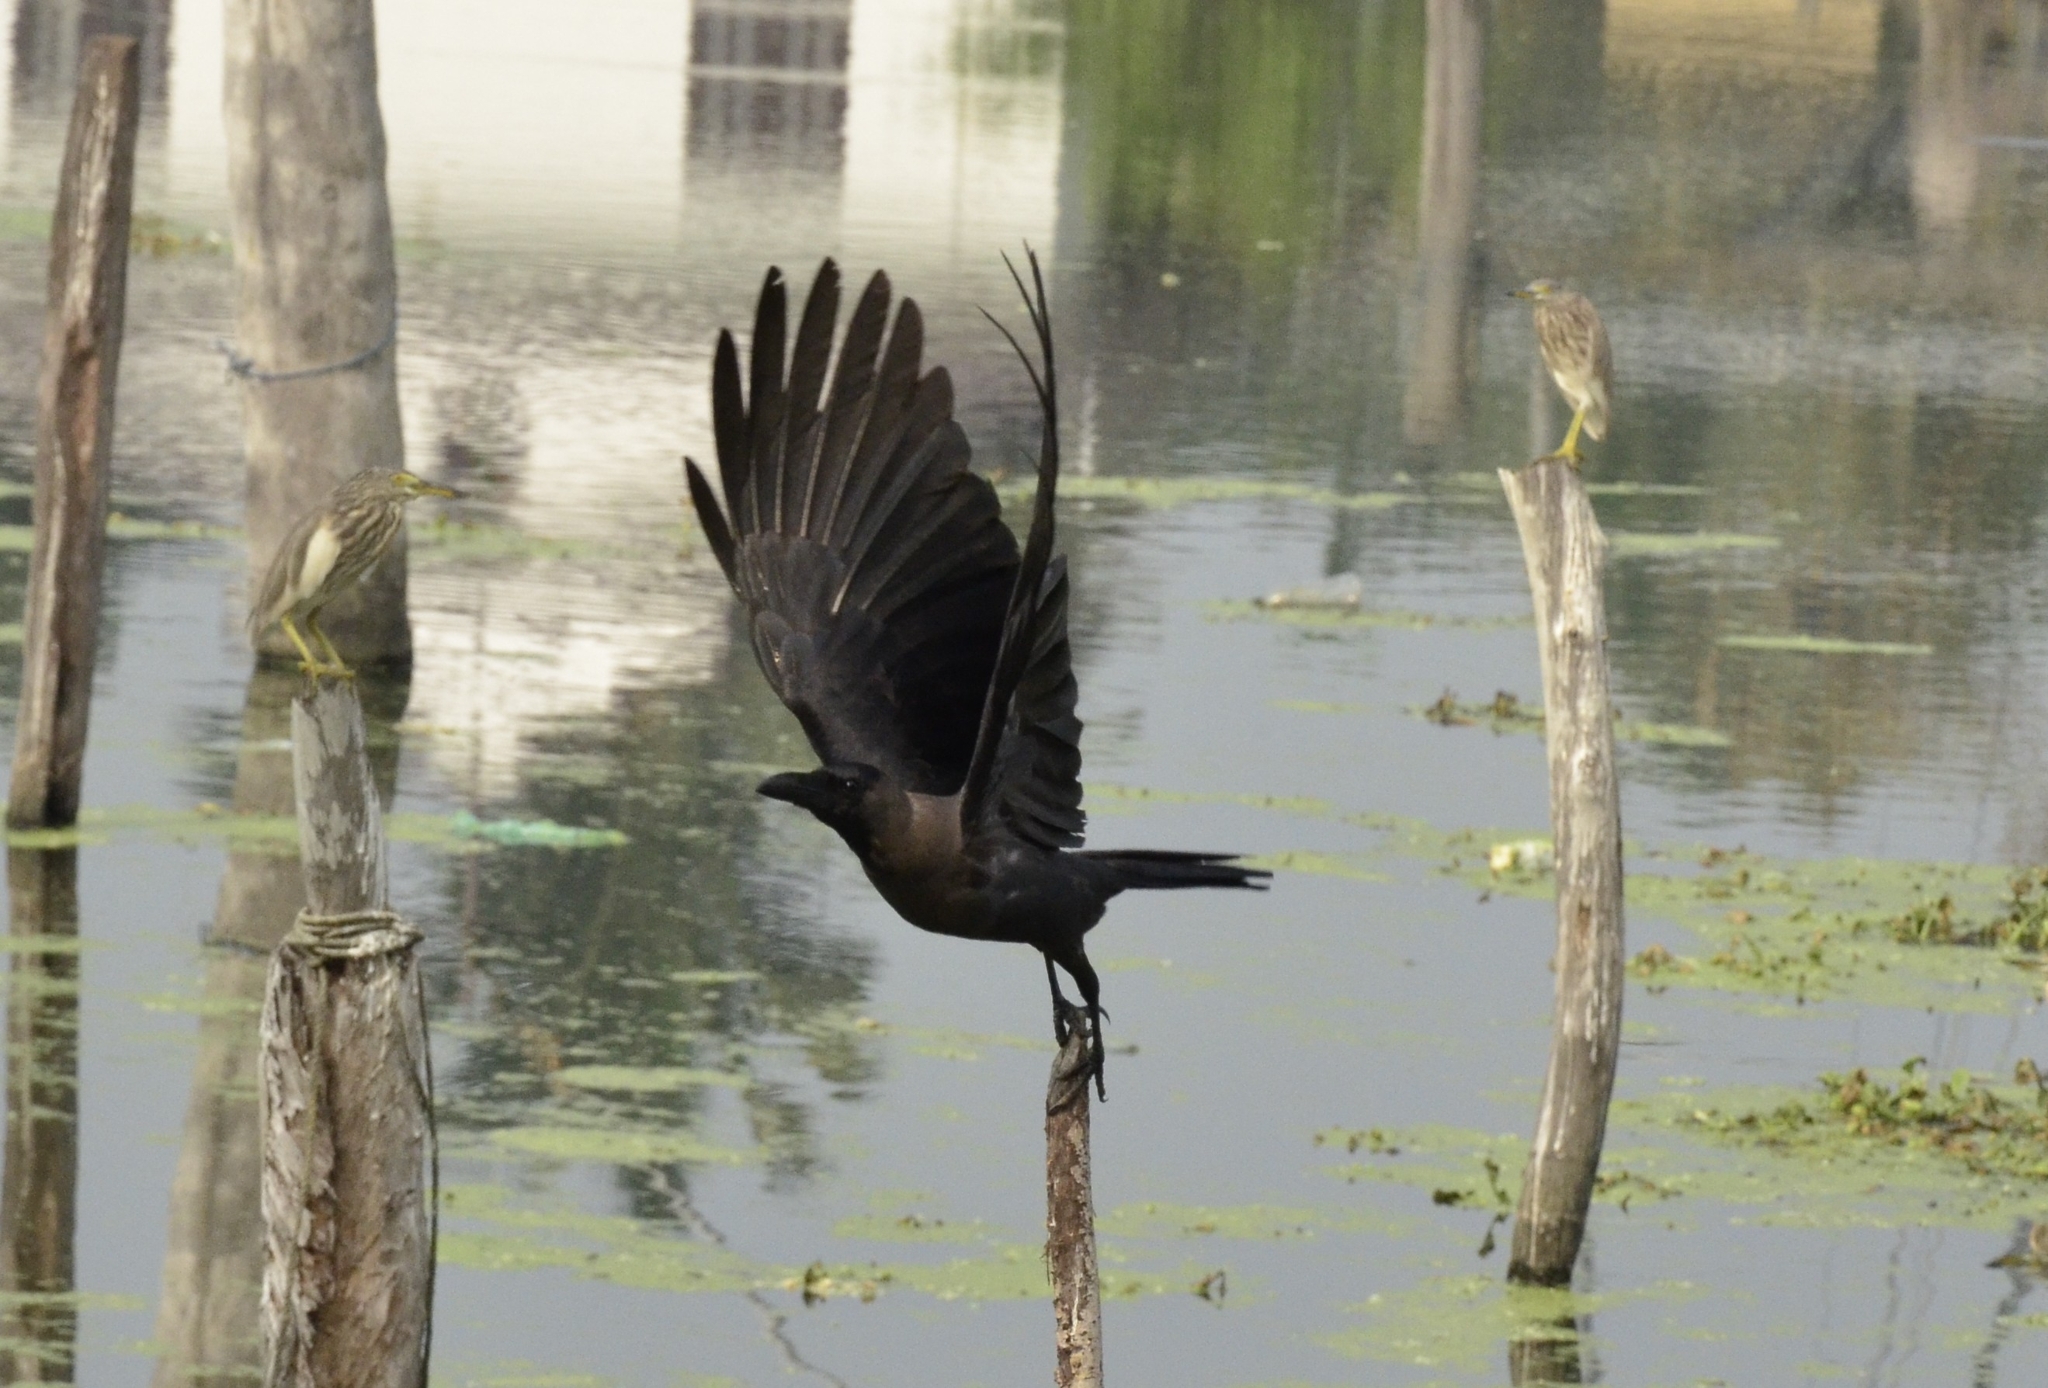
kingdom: Animalia
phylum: Chordata
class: Aves
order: Passeriformes
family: Corvidae
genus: Corvus
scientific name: Corvus splendens
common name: House crow
